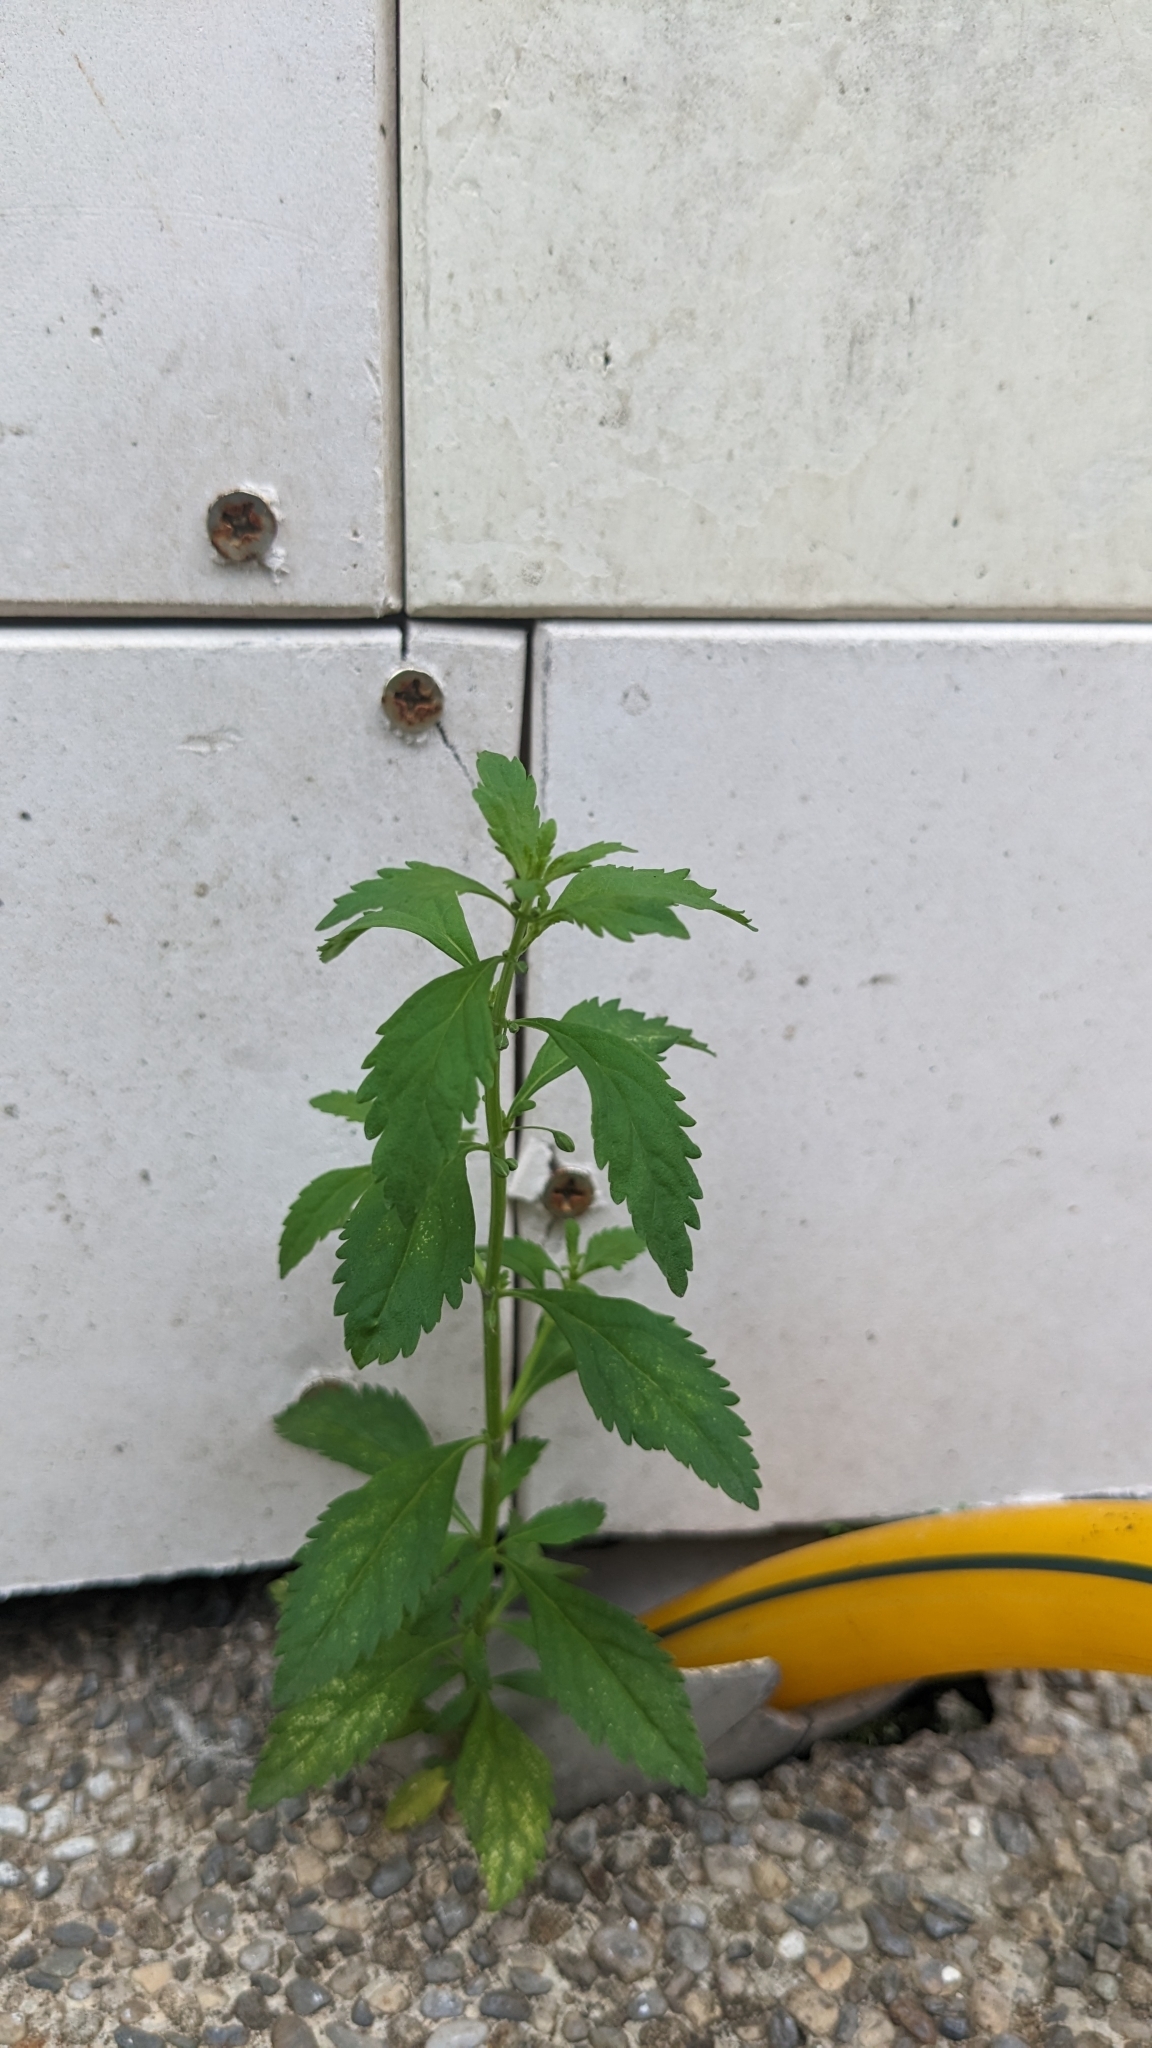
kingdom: Plantae
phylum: Tracheophyta
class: Magnoliopsida
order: Lamiales
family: Plantaginaceae
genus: Scoparia
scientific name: Scoparia dulcis
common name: Scoparia-weed
